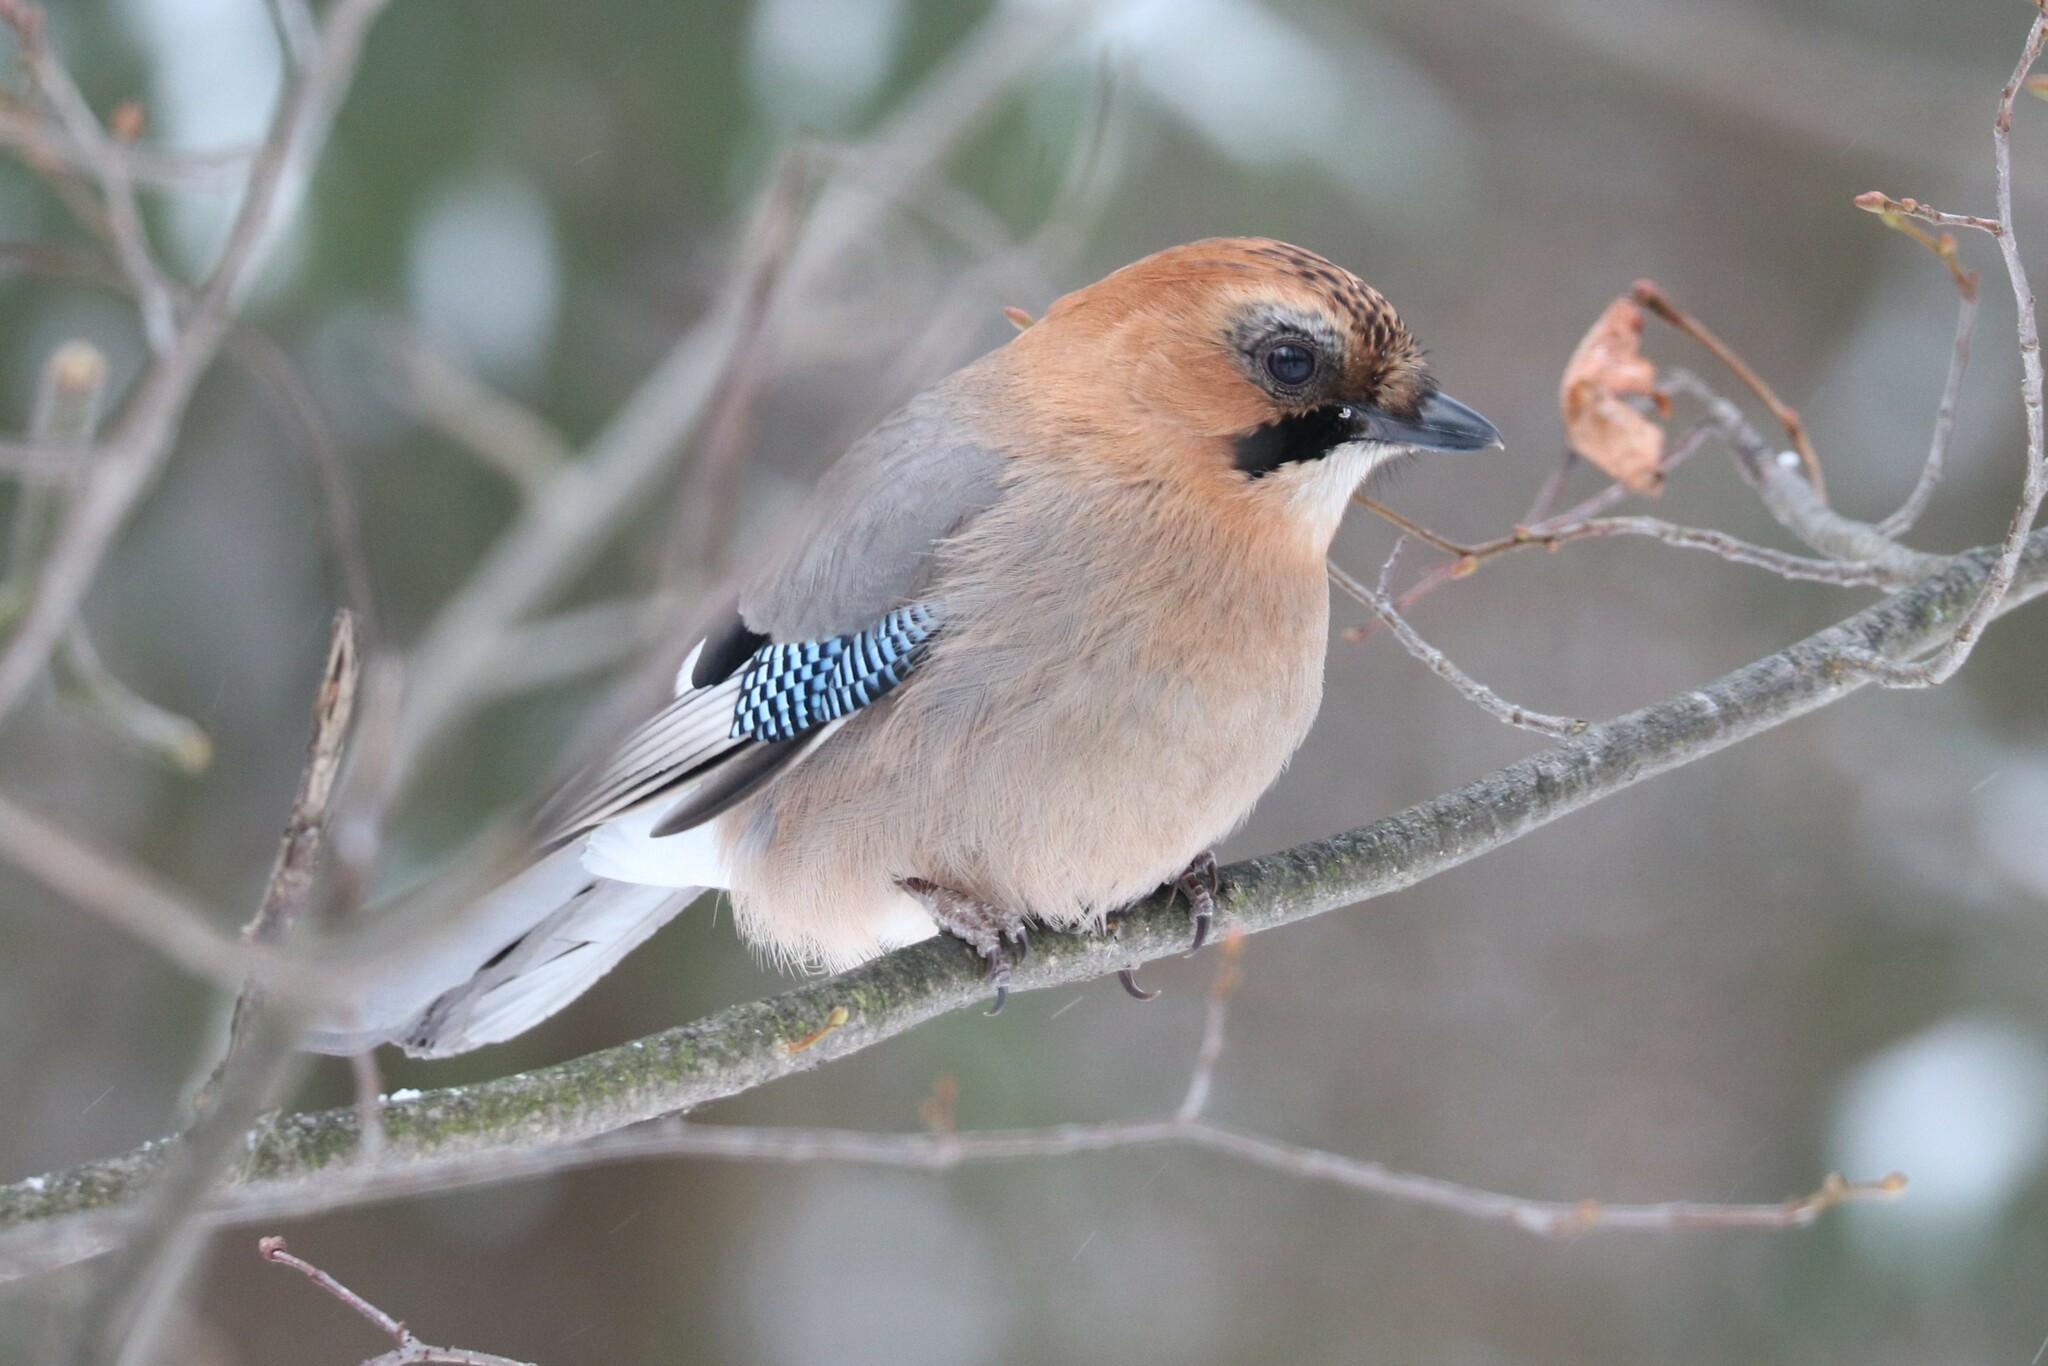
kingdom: Animalia
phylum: Chordata
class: Aves
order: Passeriformes
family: Corvidae
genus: Garrulus
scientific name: Garrulus glandarius
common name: Eurasian jay
